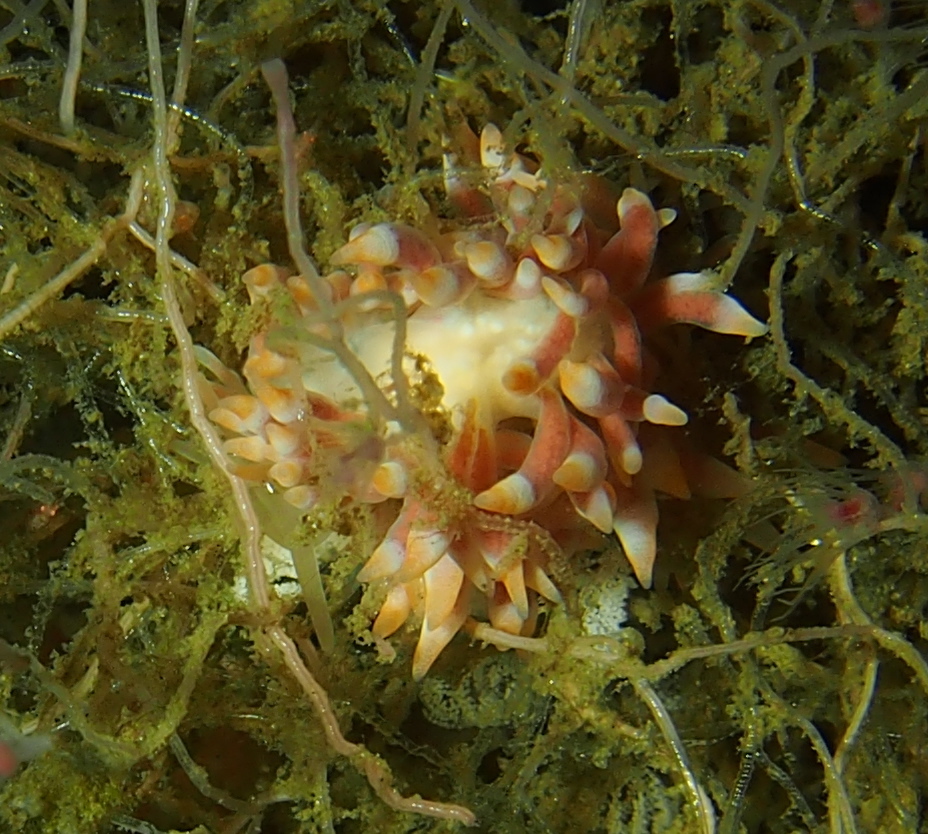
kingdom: Animalia
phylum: Mollusca
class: Gastropoda
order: Nudibranchia
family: Trinchesiidae
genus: Catriona
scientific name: Catriona aurantia
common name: Corange-tip cuthona
